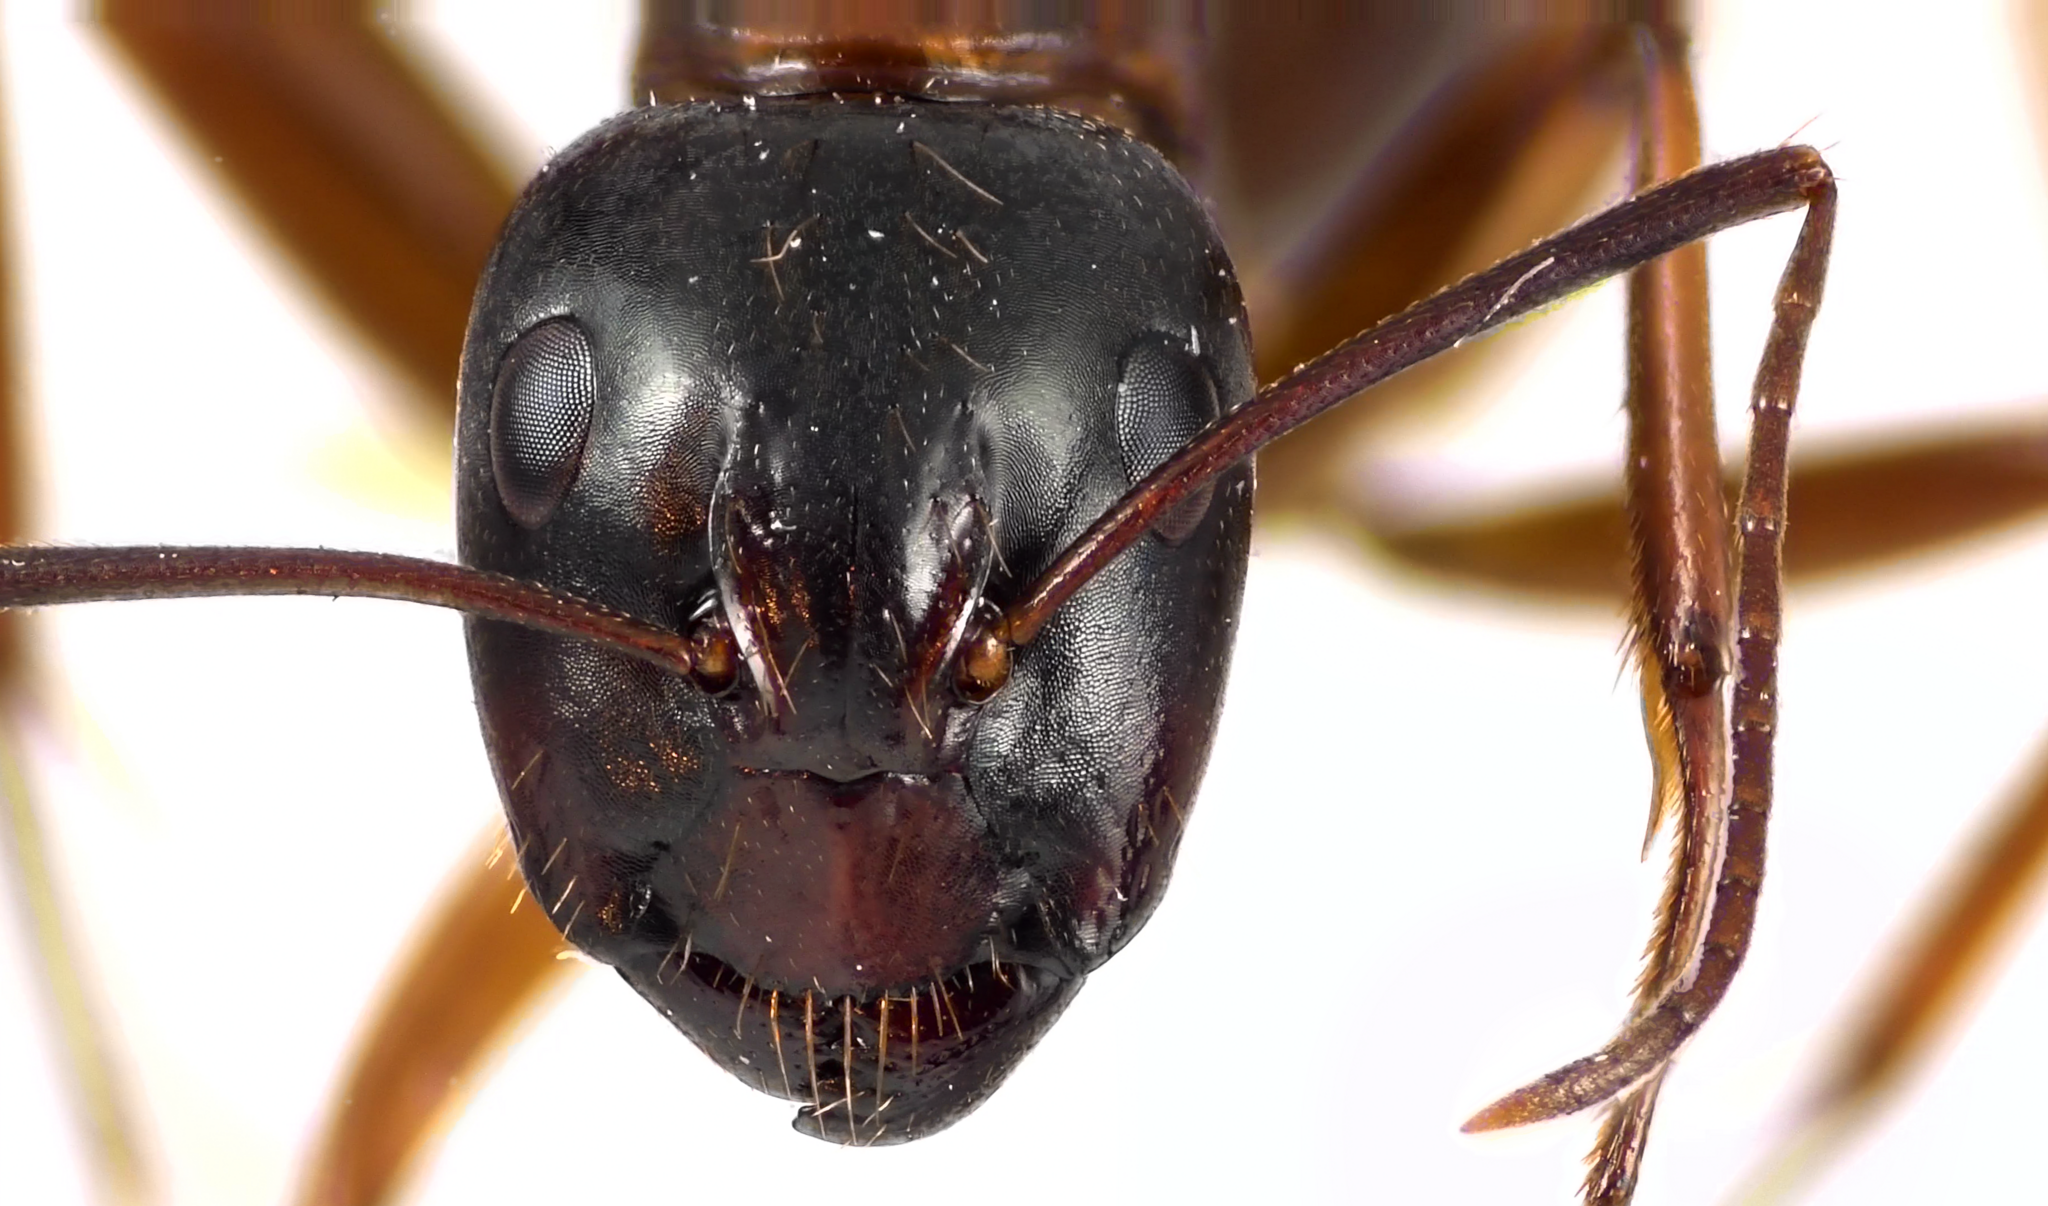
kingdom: Animalia
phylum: Arthropoda
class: Insecta
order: Hymenoptera
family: Formicidae
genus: Camponotus
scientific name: Camponotus americanus
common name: American carpenter ant
